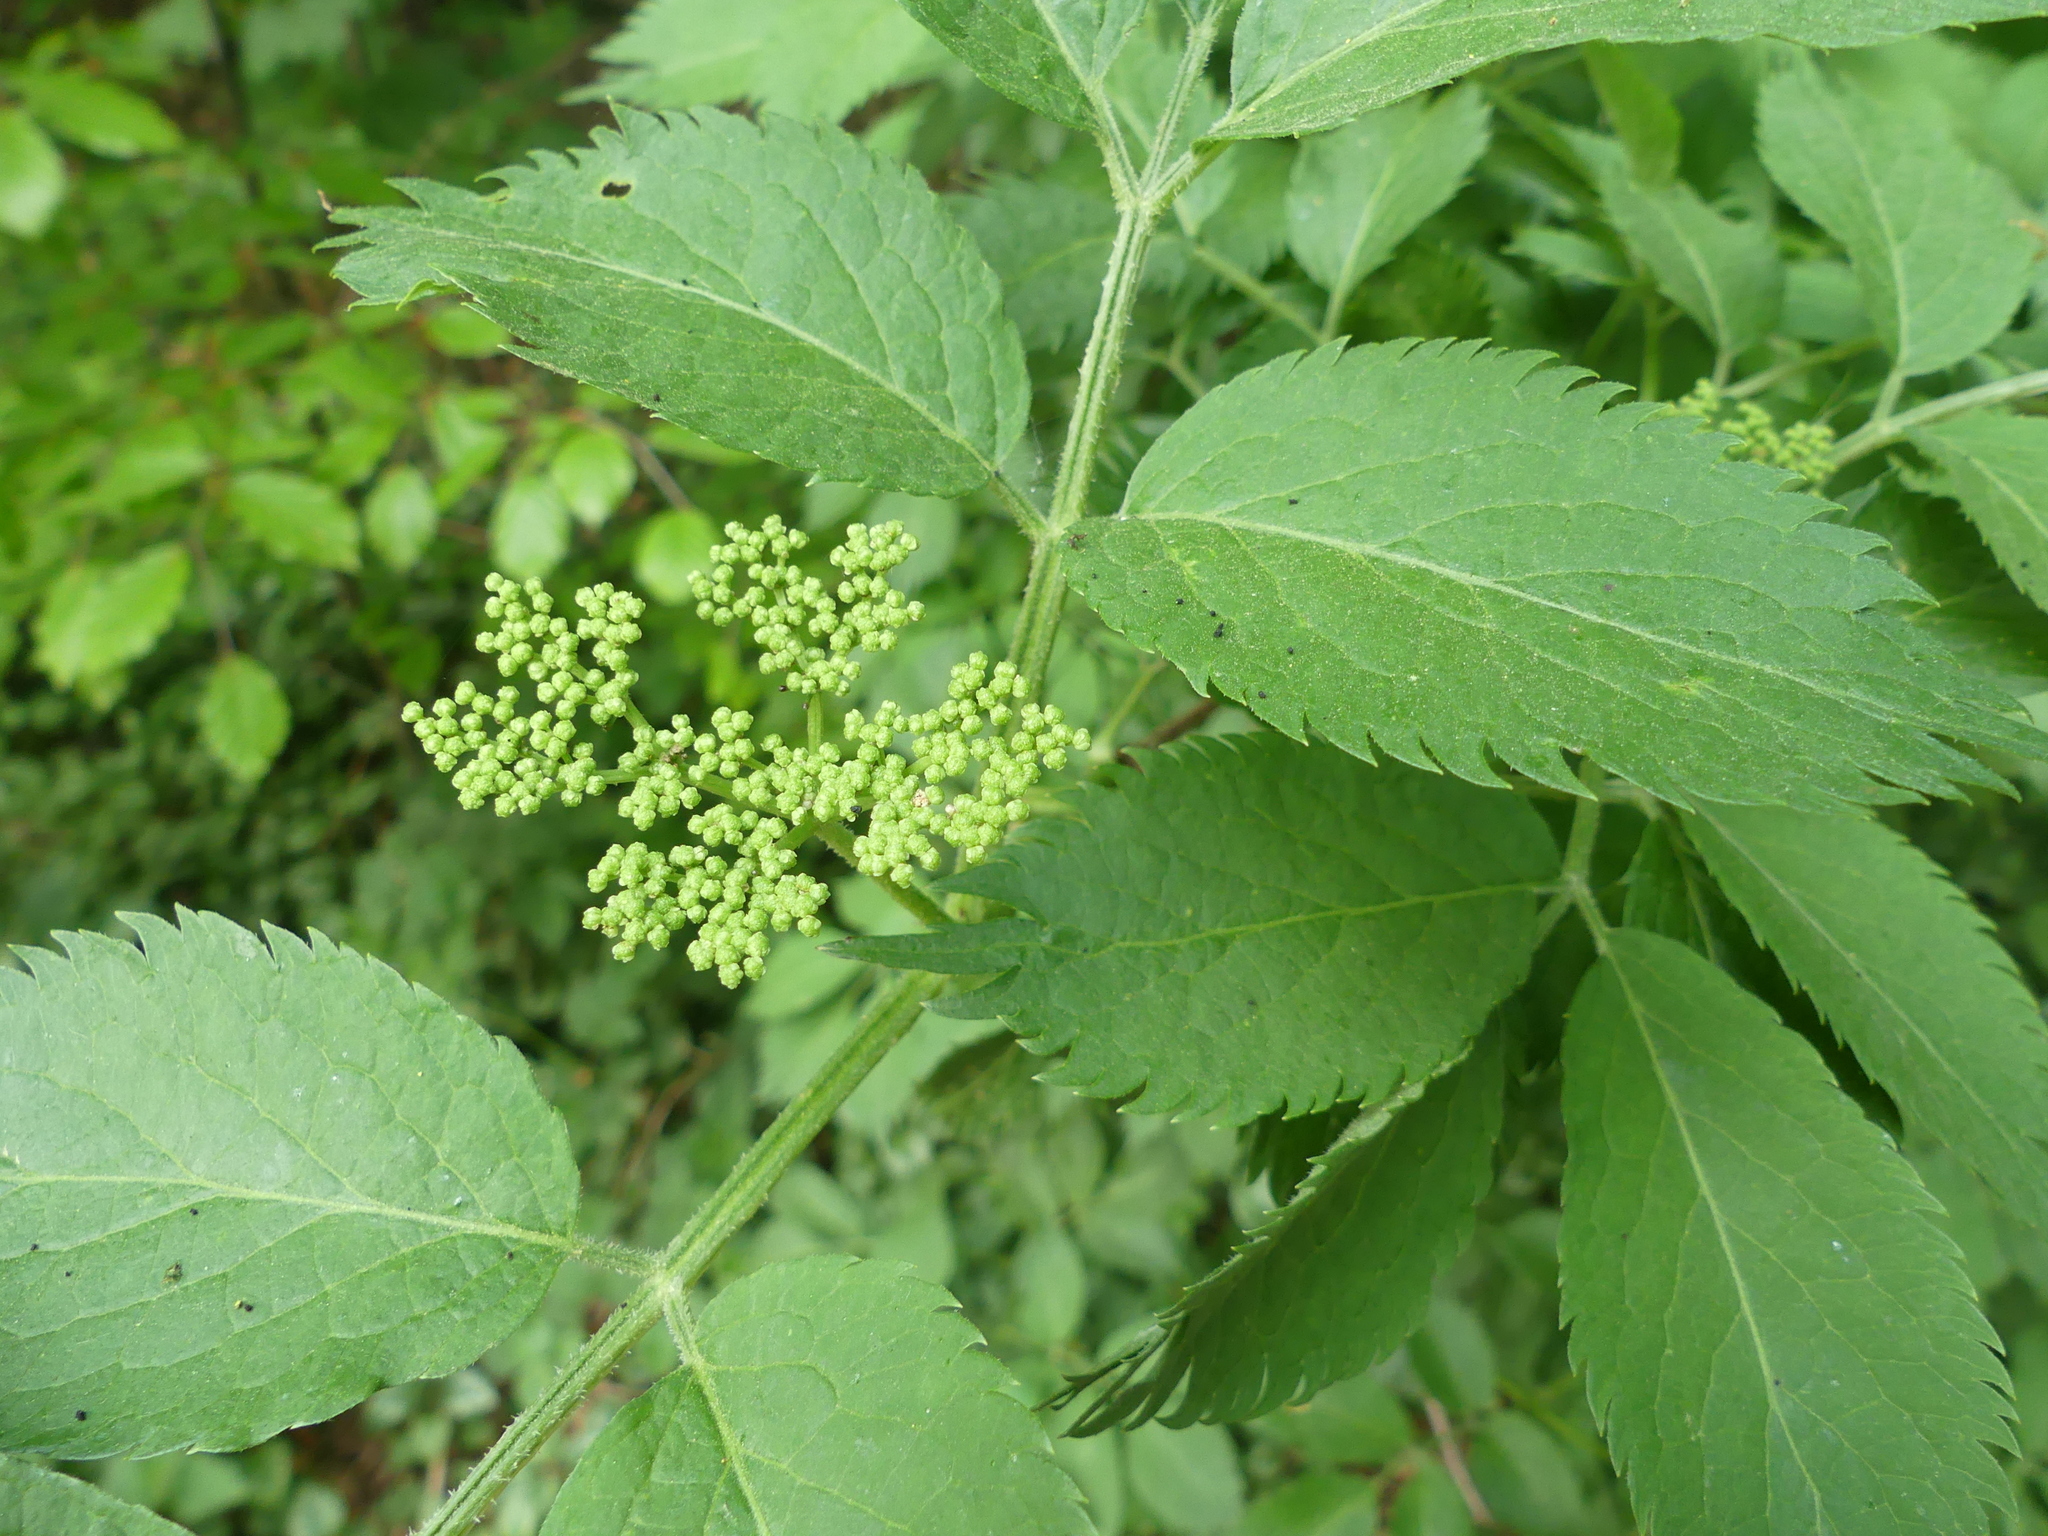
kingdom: Plantae
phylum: Tracheophyta
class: Magnoliopsida
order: Dipsacales
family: Viburnaceae
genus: Sambucus
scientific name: Sambucus nigra
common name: Elder
